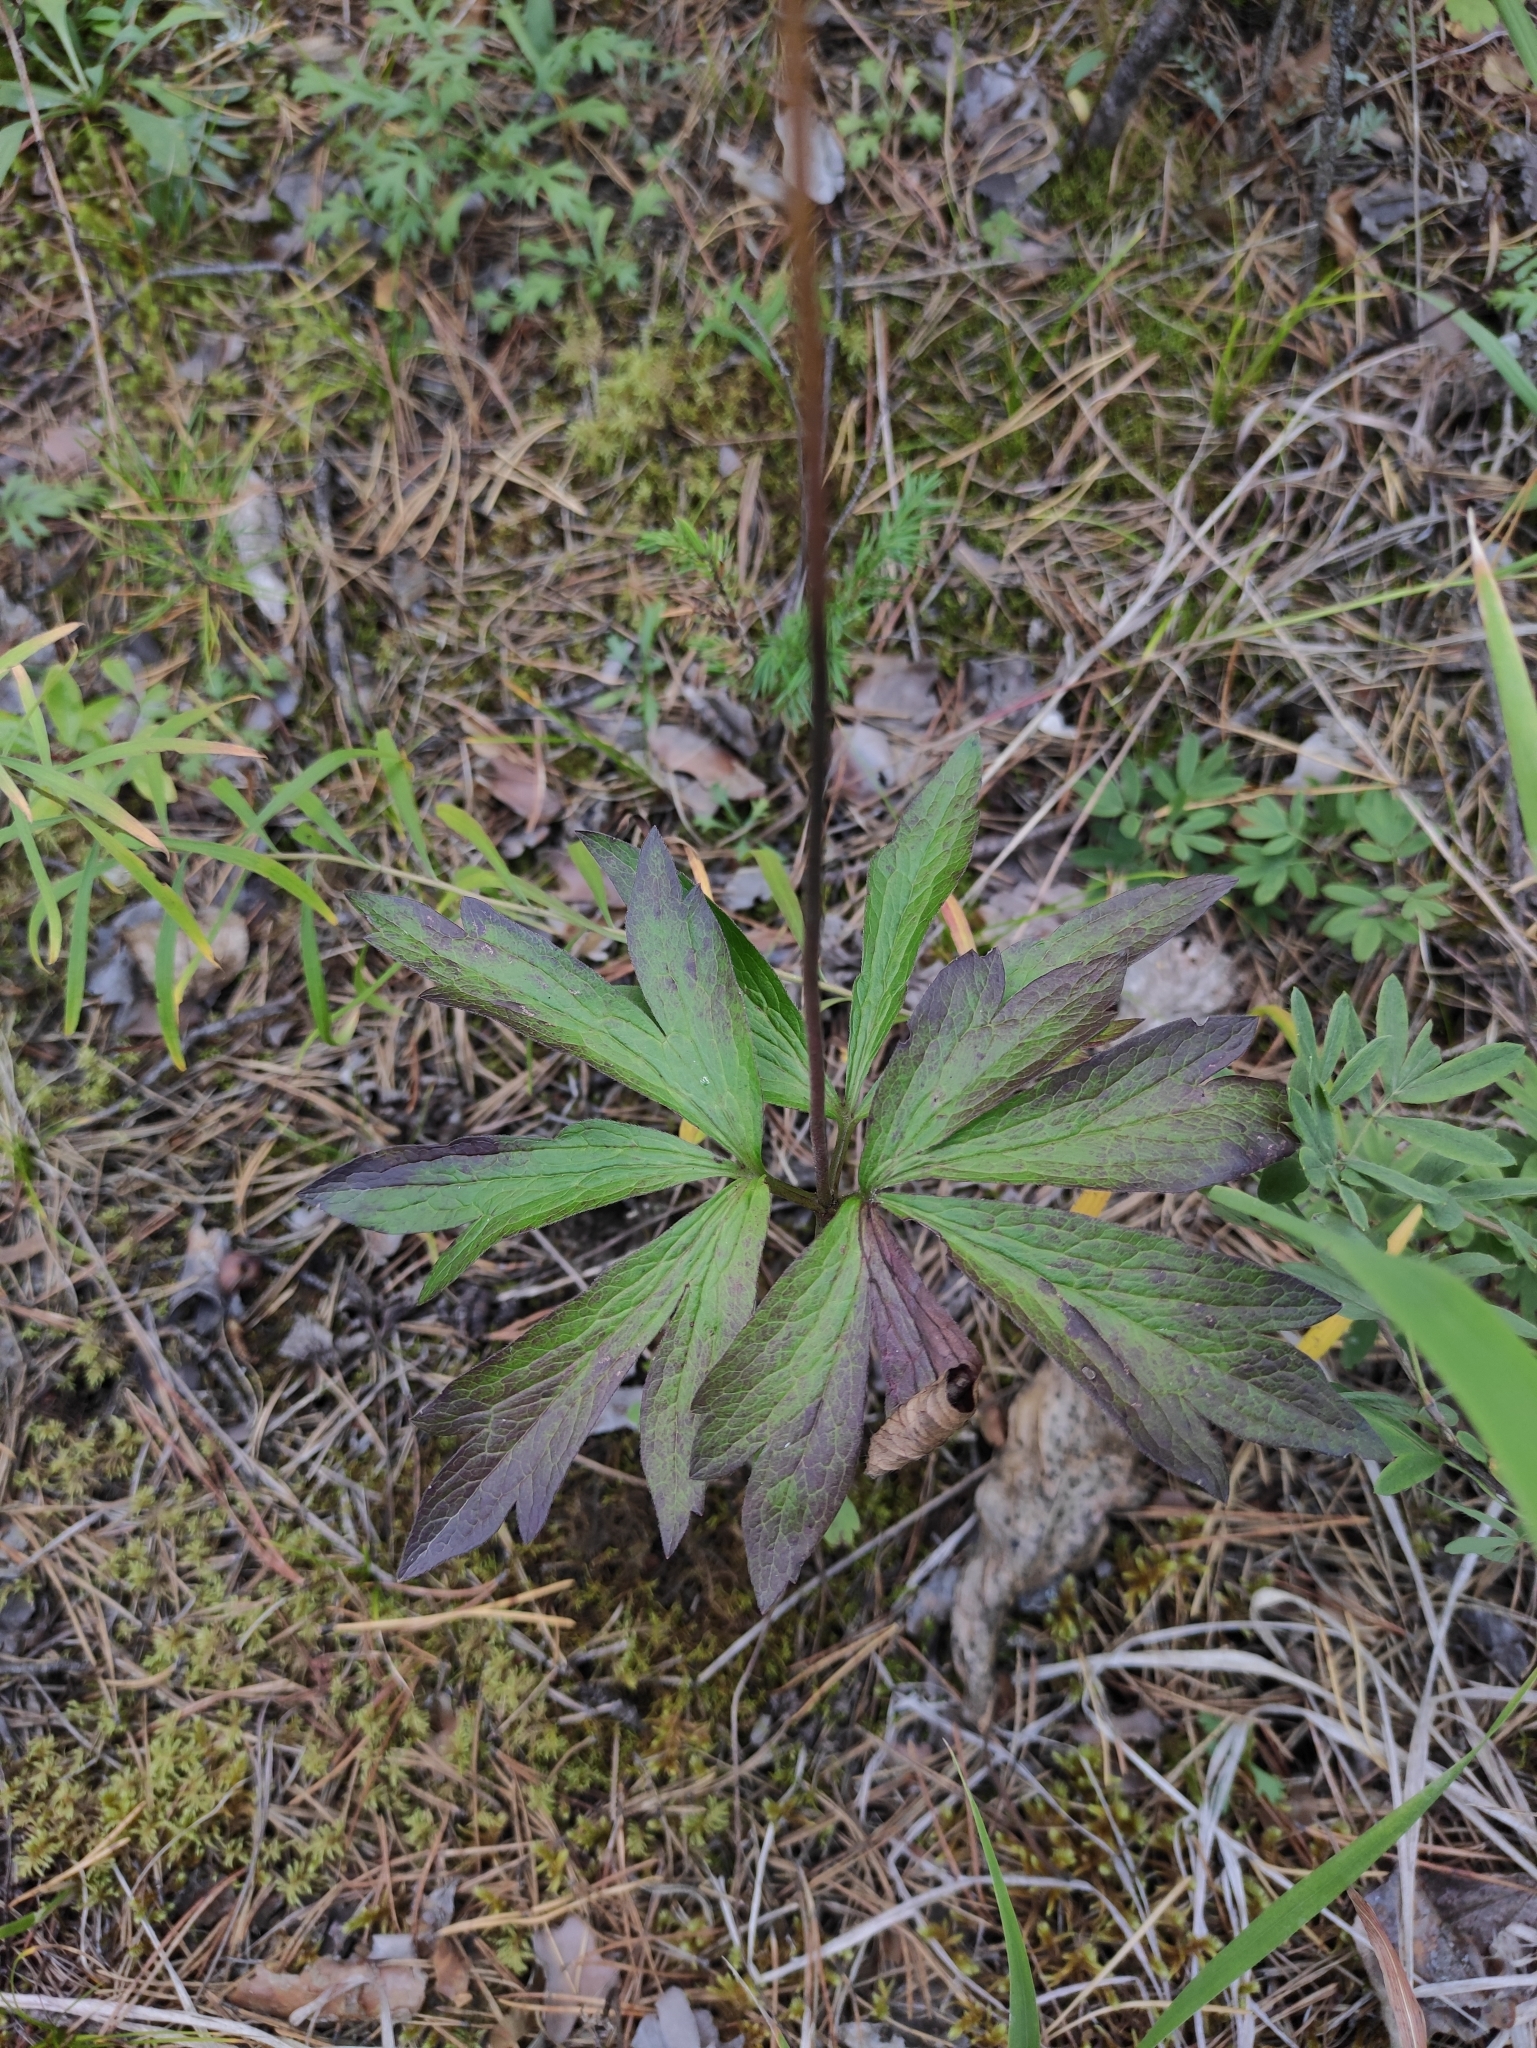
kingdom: Plantae
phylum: Tracheophyta
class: Magnoliopsida
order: Ranunculales
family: Ranunculaceae
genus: Anemone
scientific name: Anemone sylvestris
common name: Snowdrop anemone
